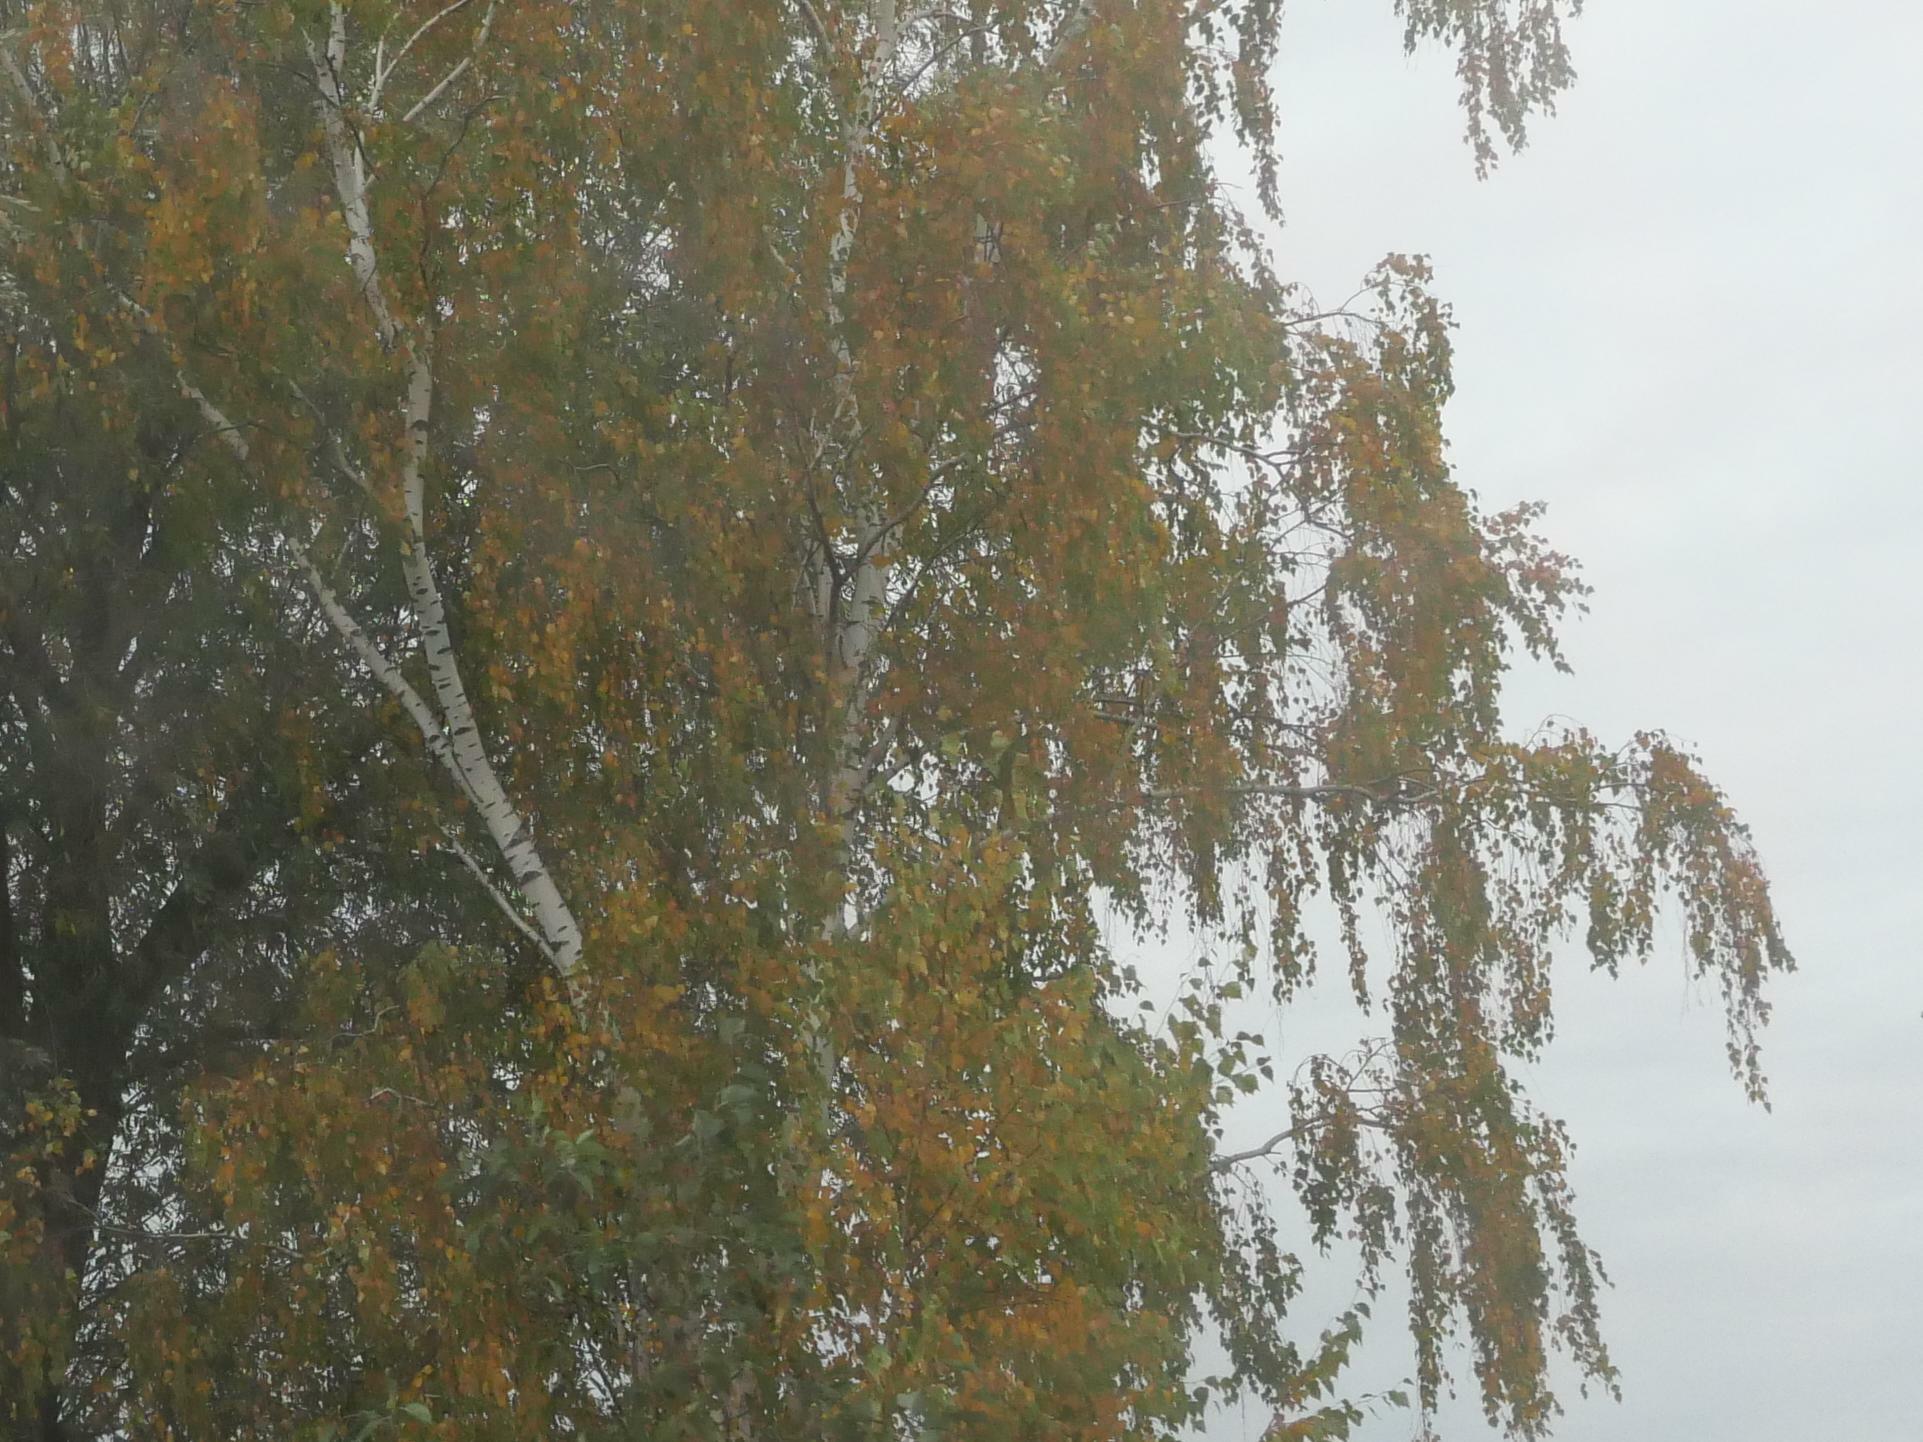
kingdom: Plantae
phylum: Tracheophyta
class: Magnoliopsida
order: Fagales
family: Betulaceae
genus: Betula
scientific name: Betula pendula
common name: Silver birch
